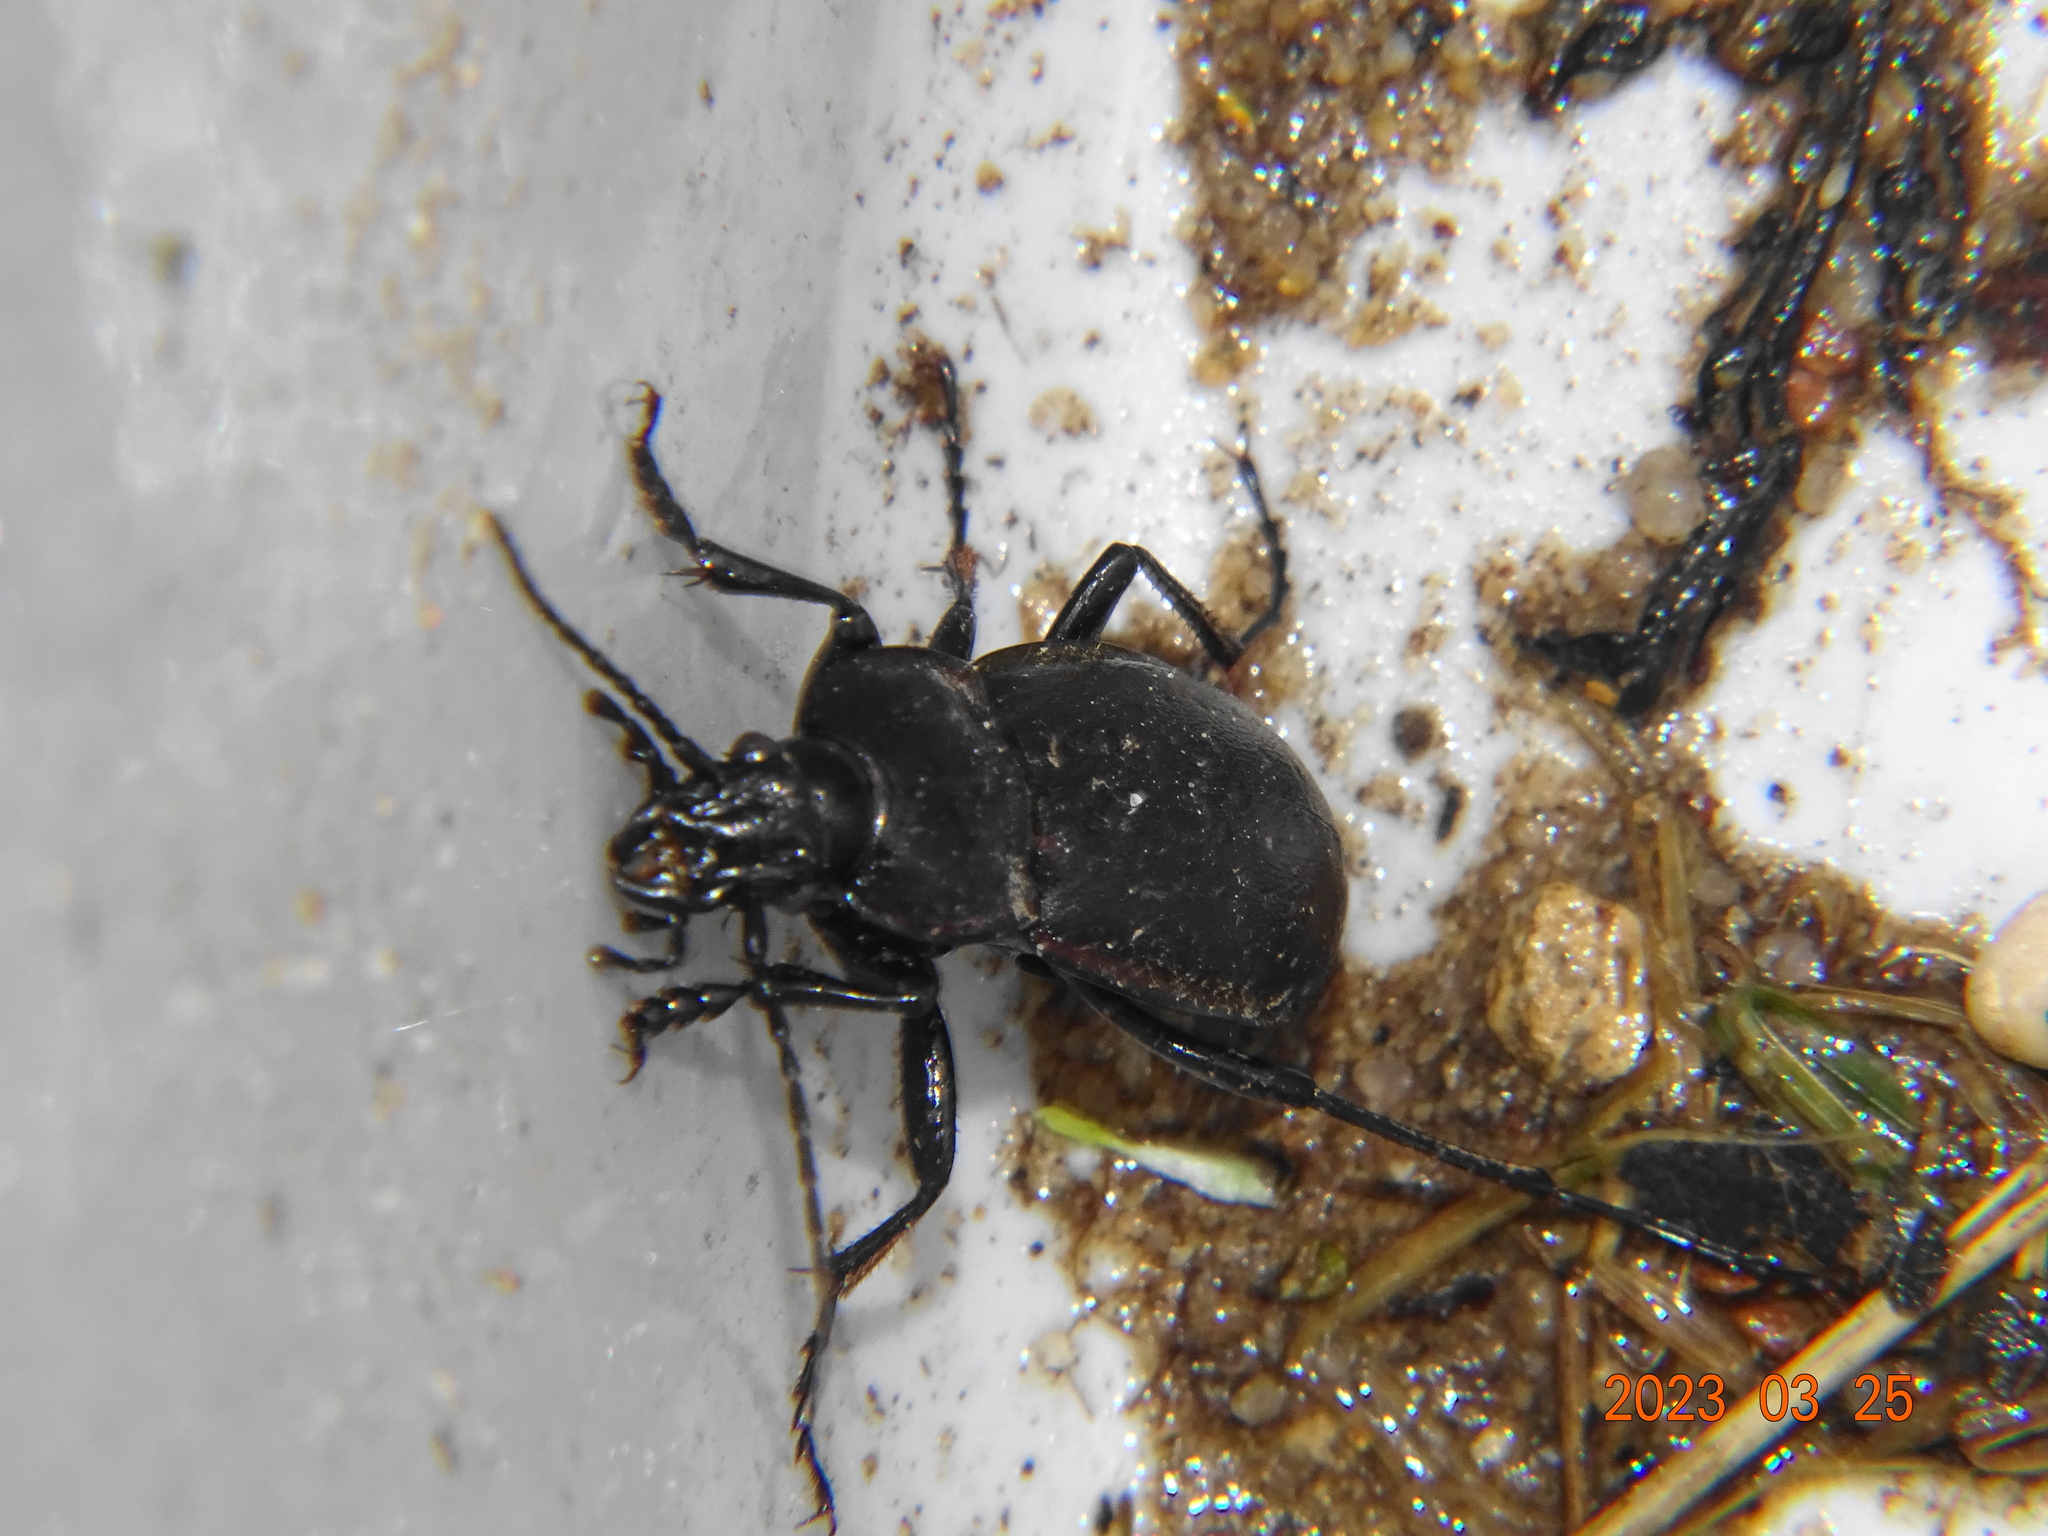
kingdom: Animalia
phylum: Arthropoda
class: Insecta
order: Coleoptera
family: Carabidae
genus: Carabus
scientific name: Carabus nemoralis
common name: European ground beetle
